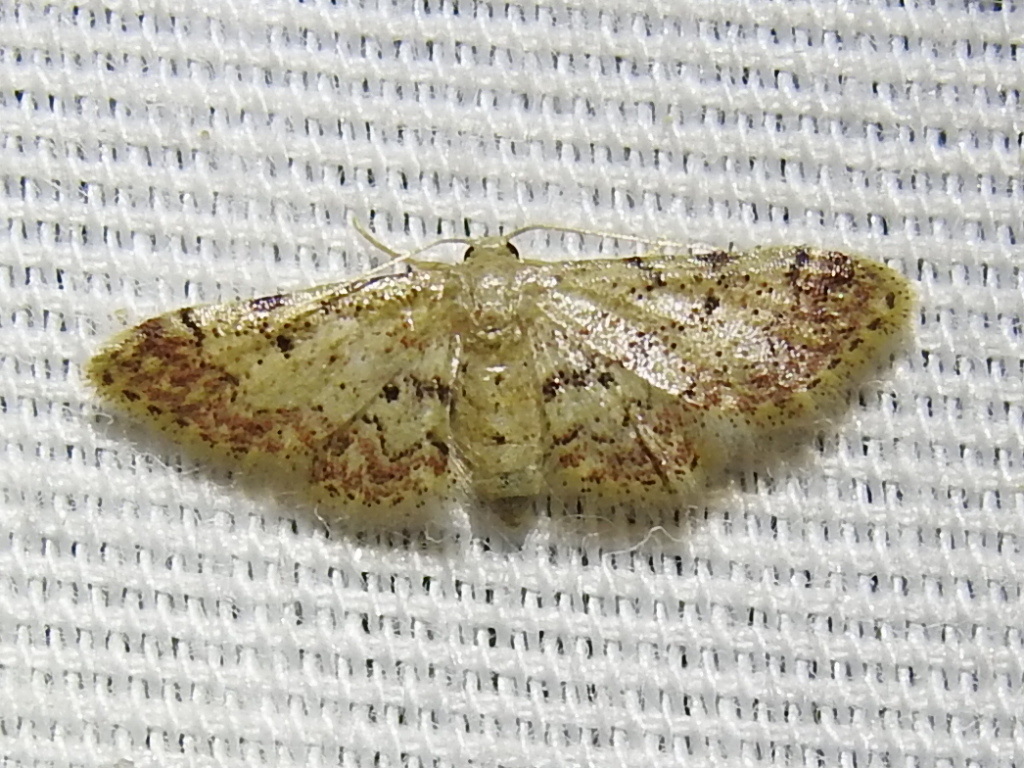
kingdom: Animalia
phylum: Arthropoda
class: Insecta
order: Lepidoptera
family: Geometridae
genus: Idaea
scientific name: Idaea pervertipennis
